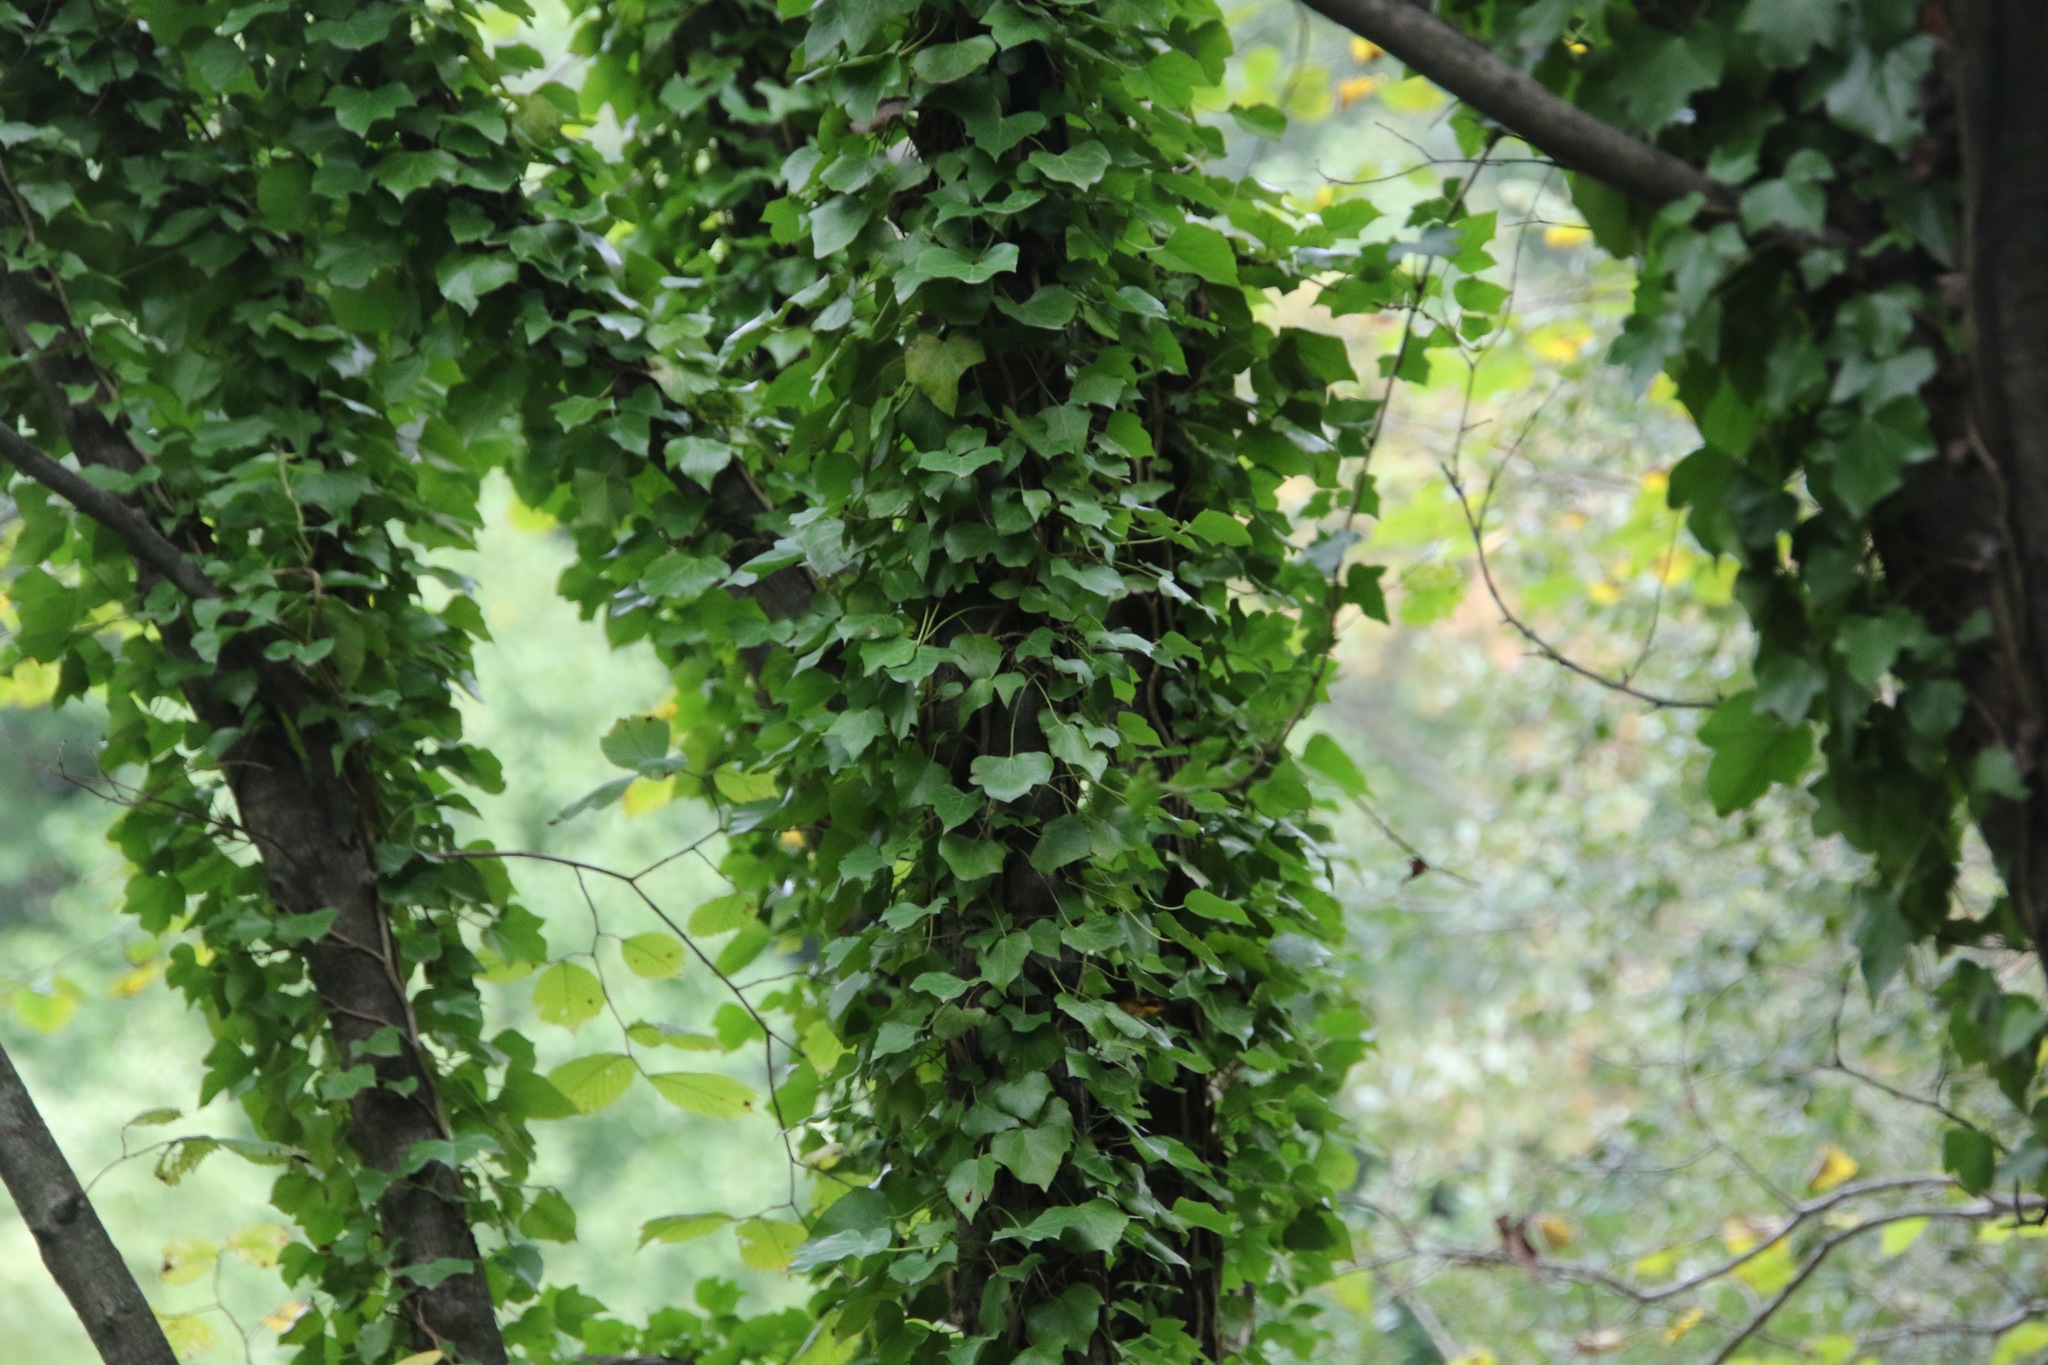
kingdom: Plantae
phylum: Tracheophyta
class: Magnoliopsida
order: Apiales
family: Araliaceae
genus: Hedera
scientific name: Hedera helix
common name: Ivy
